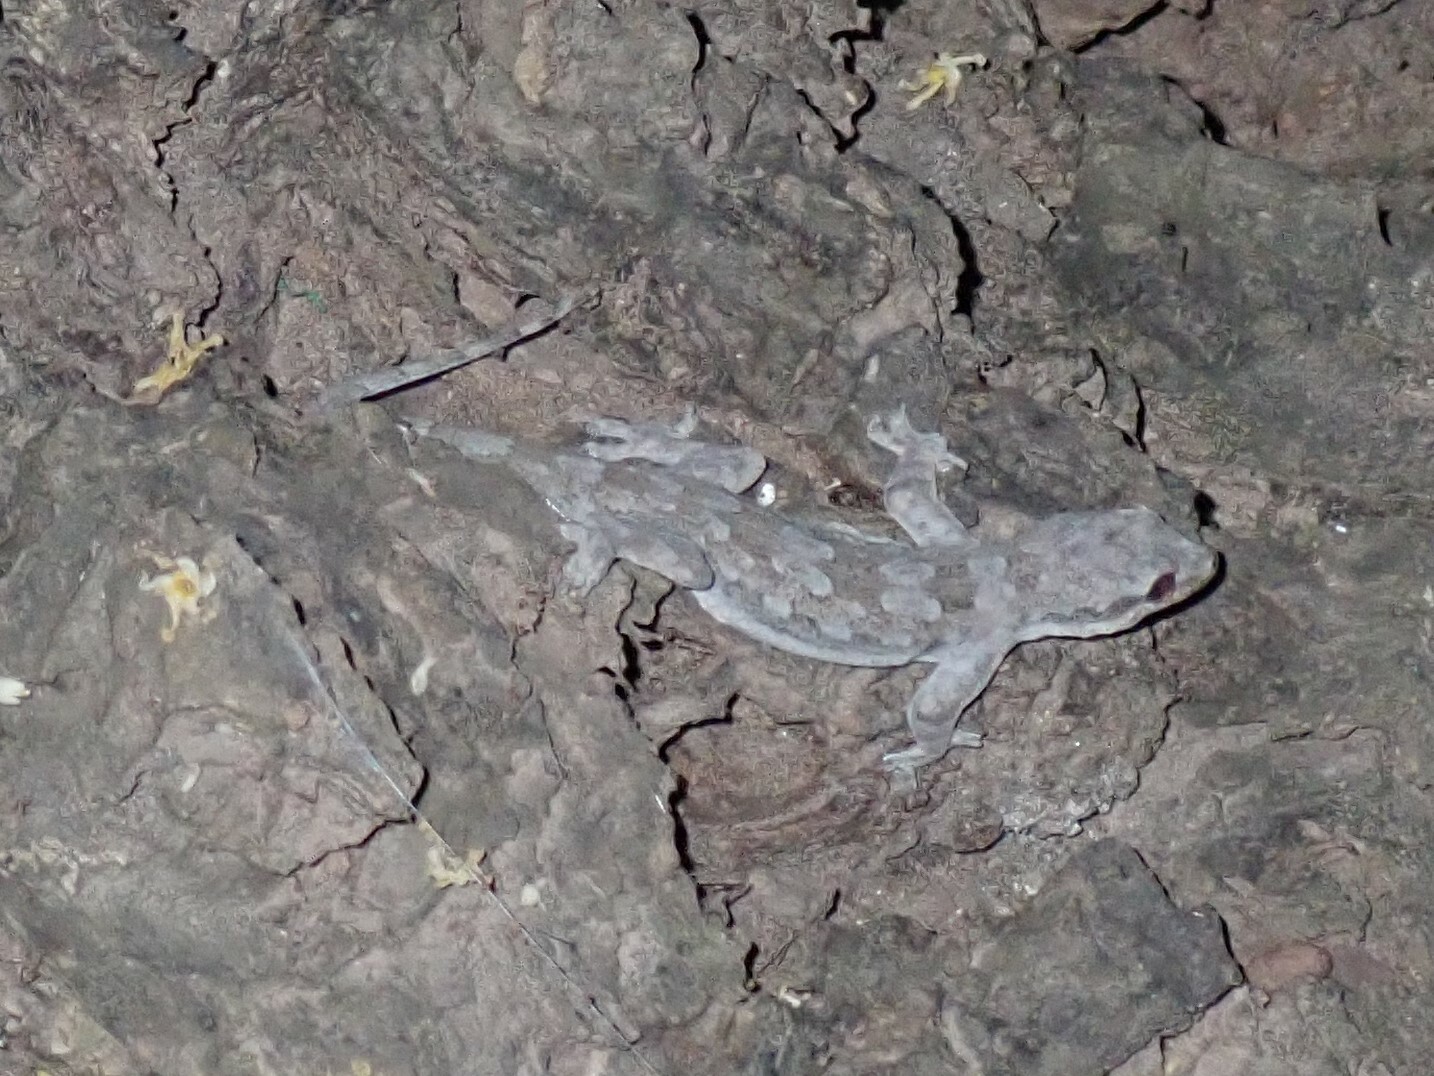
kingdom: Animalia
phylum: Chordata
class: Squamata
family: Gekkonidae
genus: Hemidactylus
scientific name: Hemidactylus platyurus
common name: Flat-tailed house gecko
